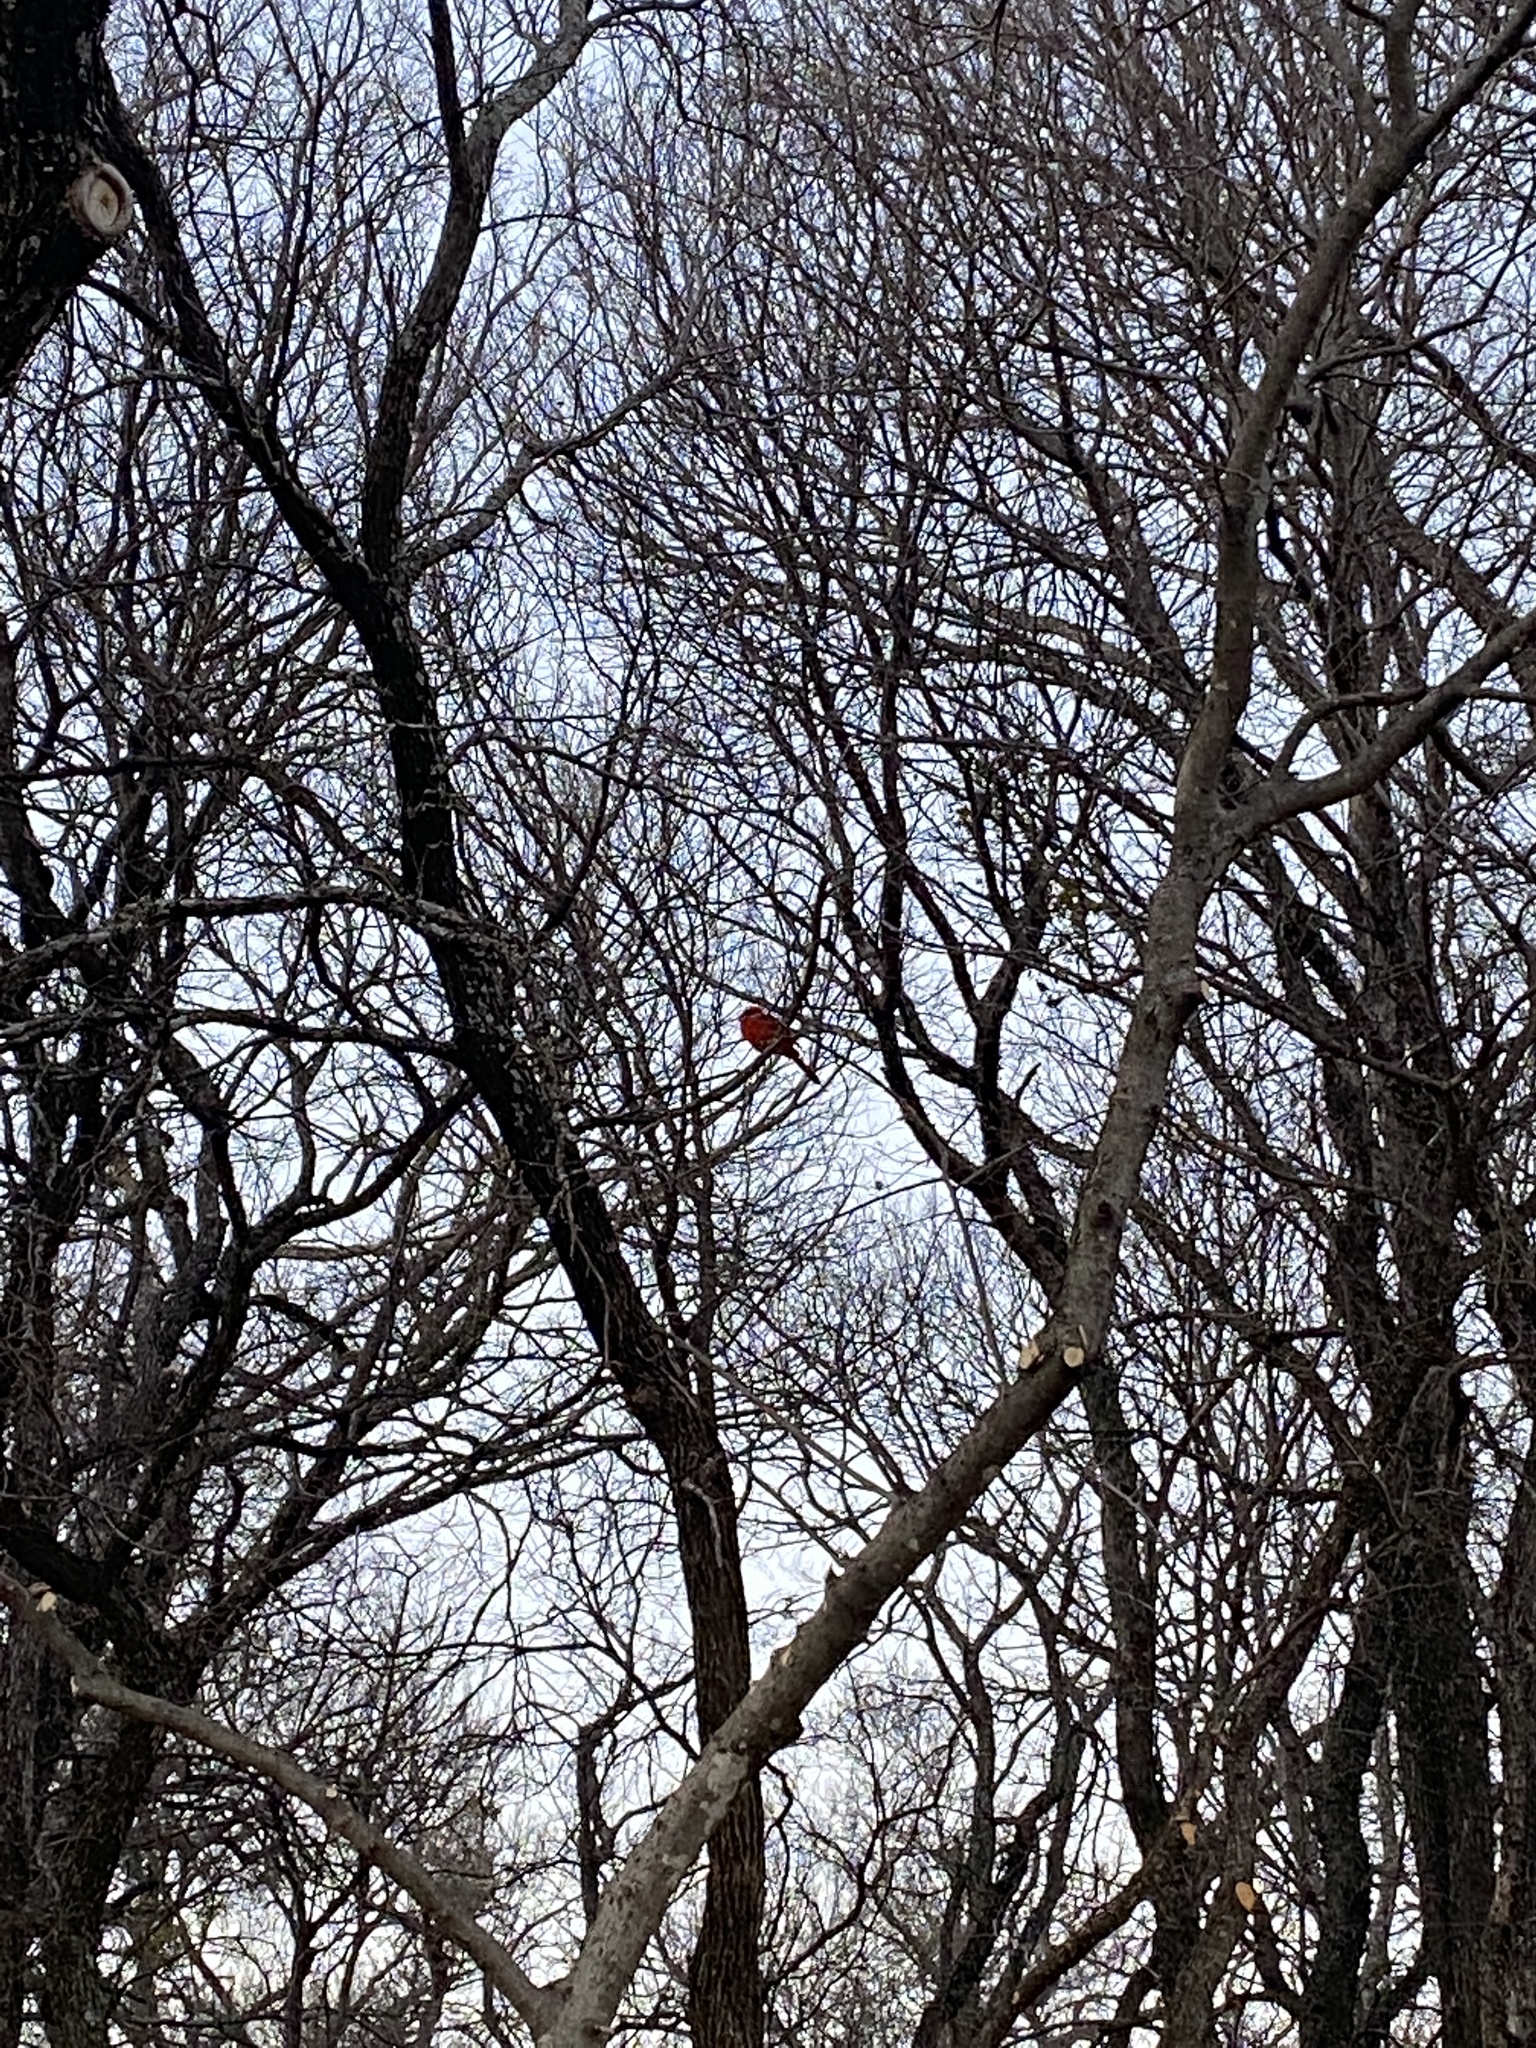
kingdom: Animalia
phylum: Chordata
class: Aves
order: Passeriformes
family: Cardinalidae
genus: Cardinalis
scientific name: Cardinalis cardinalis
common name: Northern cardinal
